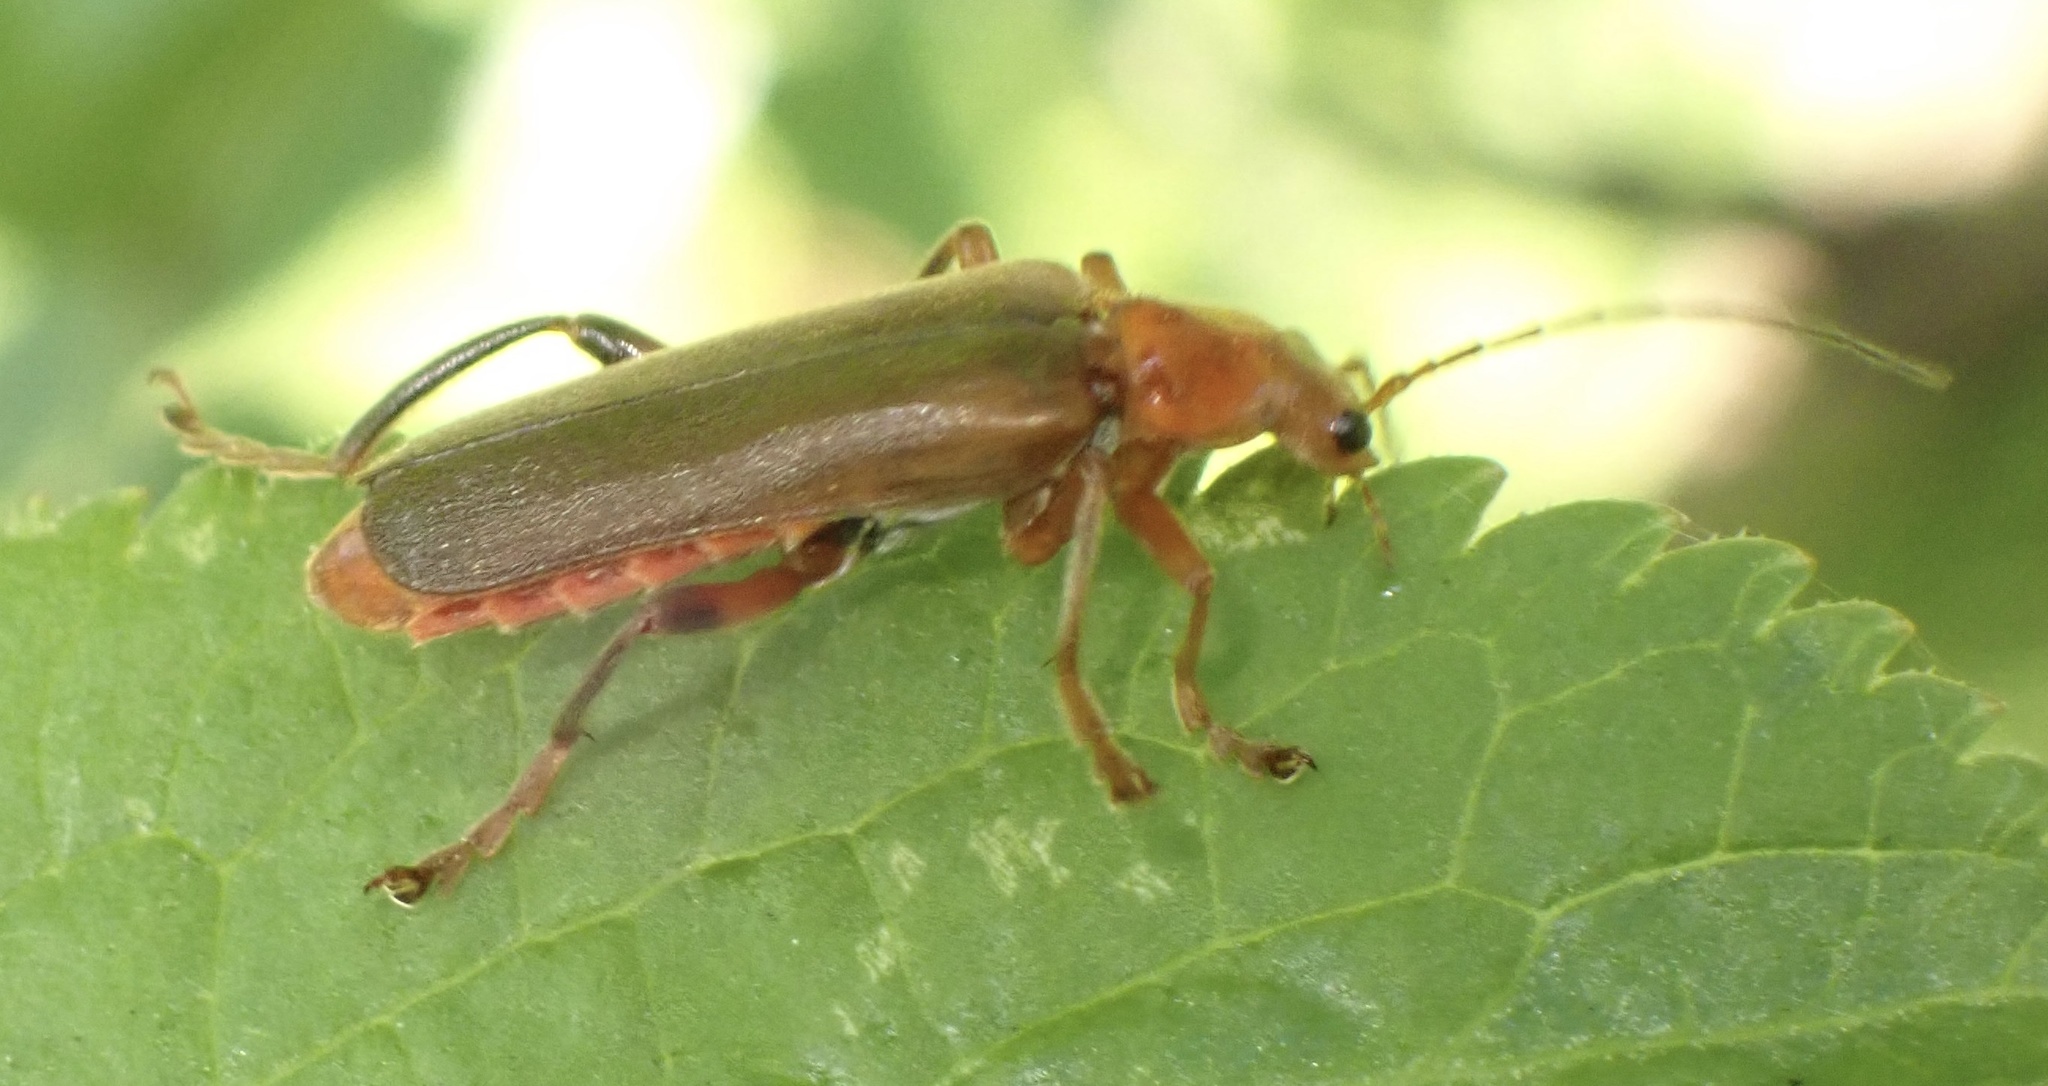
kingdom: Animalia
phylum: Arthropoda
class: Insecta
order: Coleoptera
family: Cantharidae
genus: Cantharis
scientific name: Cantharis livida
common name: Livid soldier beetle
